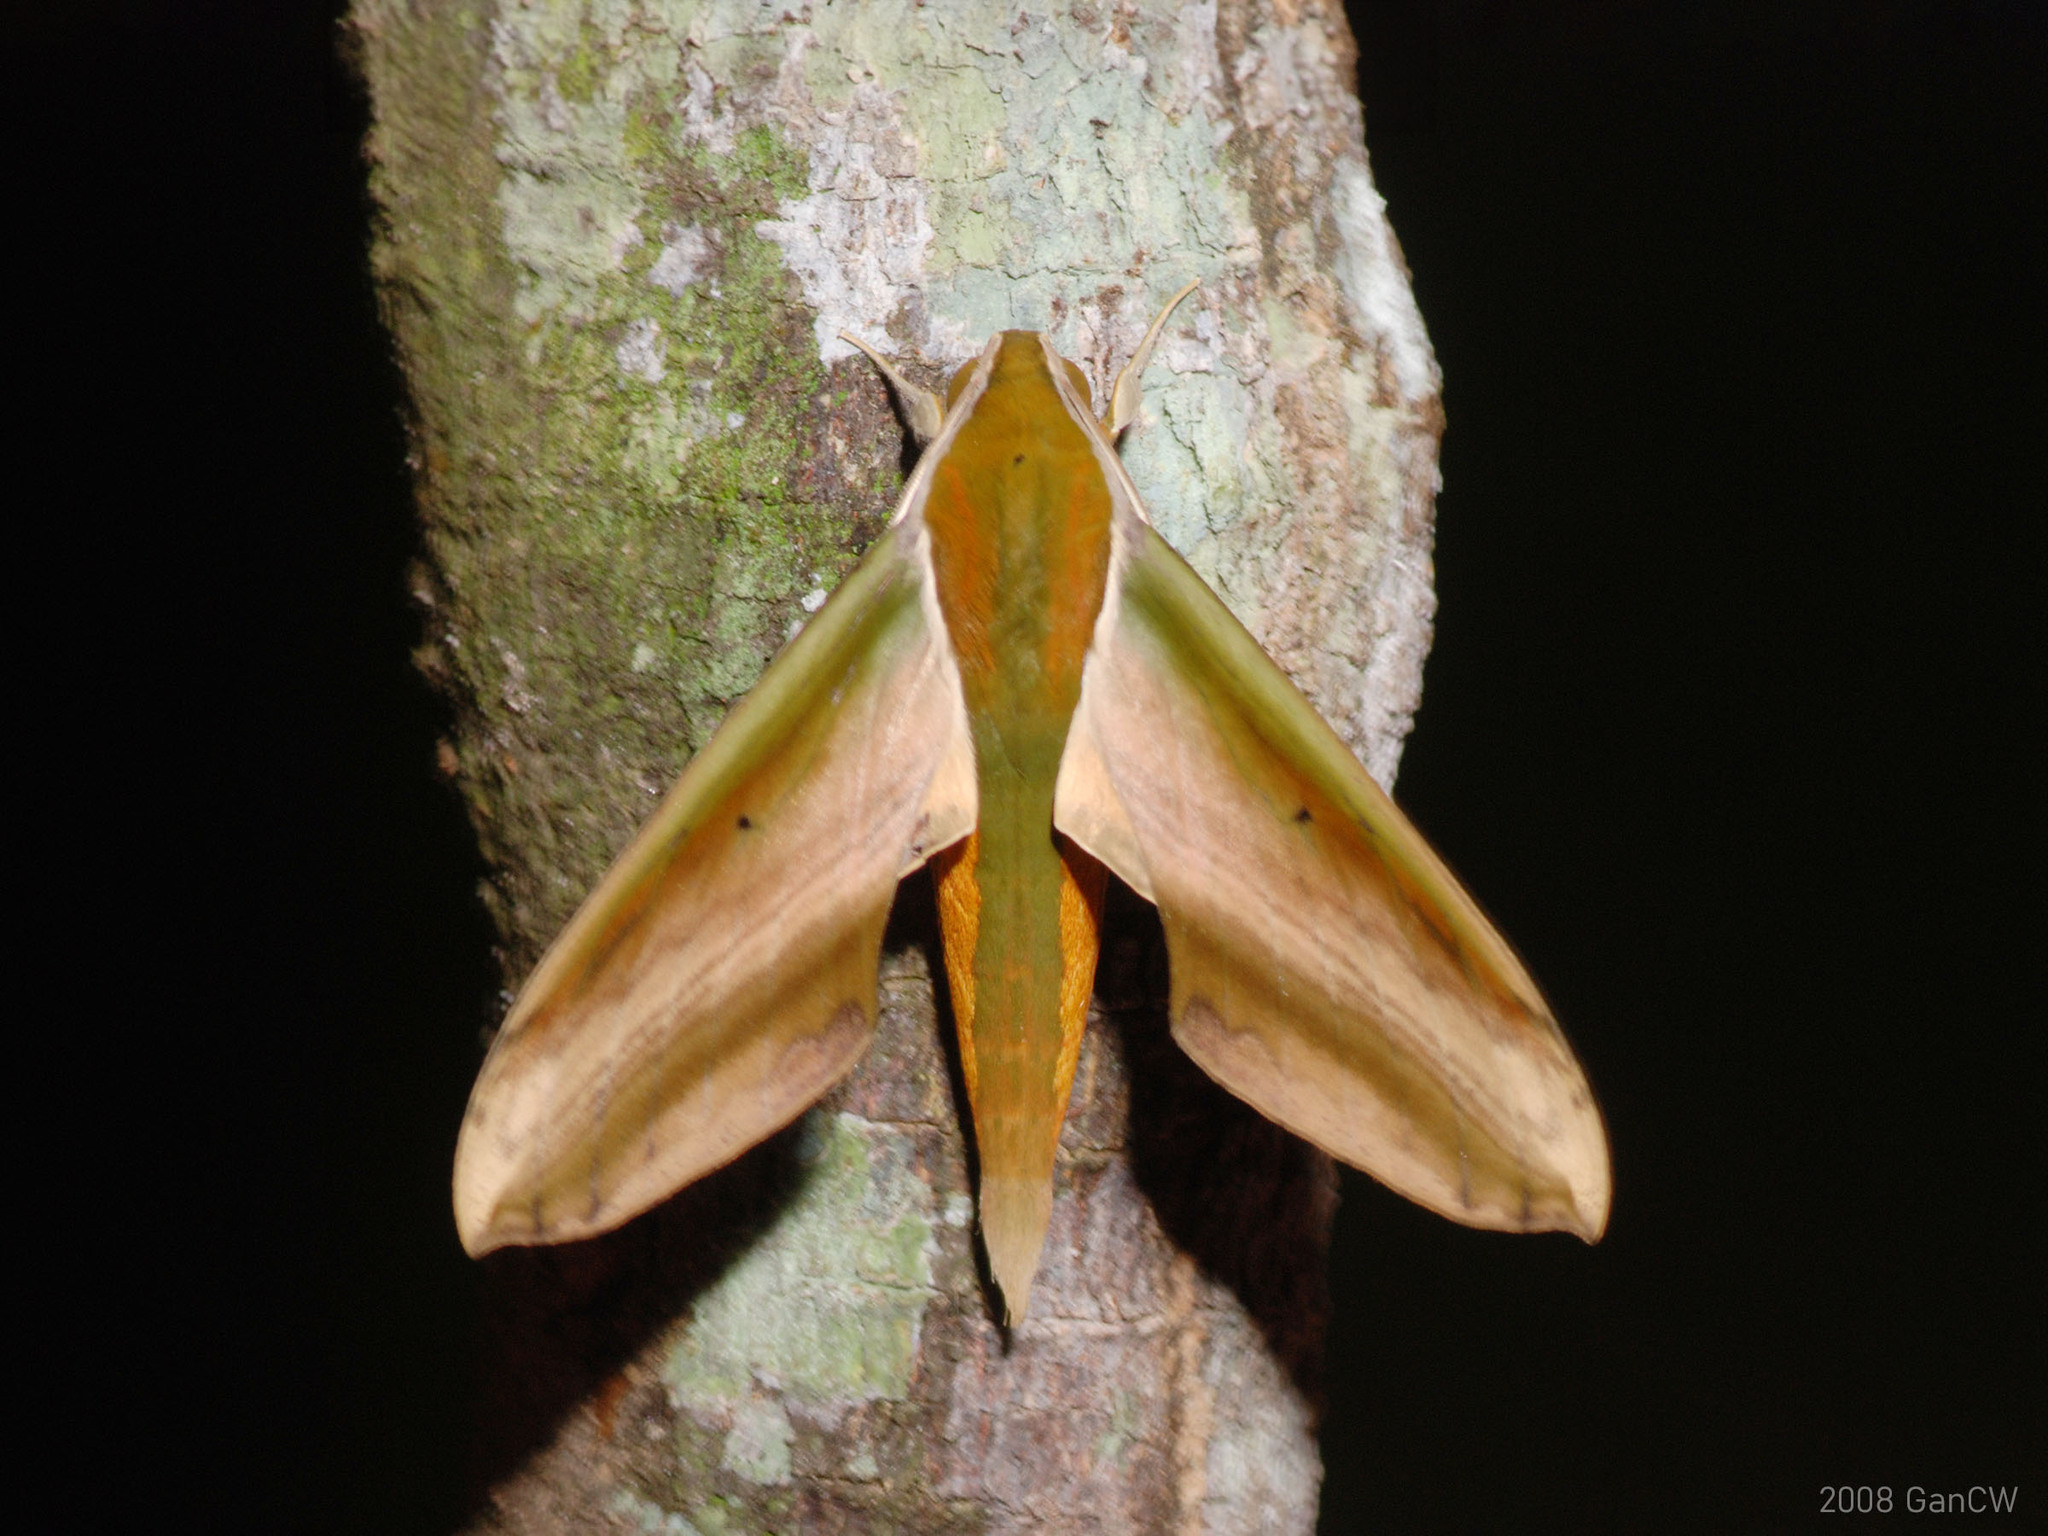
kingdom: Animalia
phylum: Arthropoda
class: Insecta
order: Lepidoptera
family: Sphingidae
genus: Theretra
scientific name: Theretra nessus
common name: Yam hawk moth
